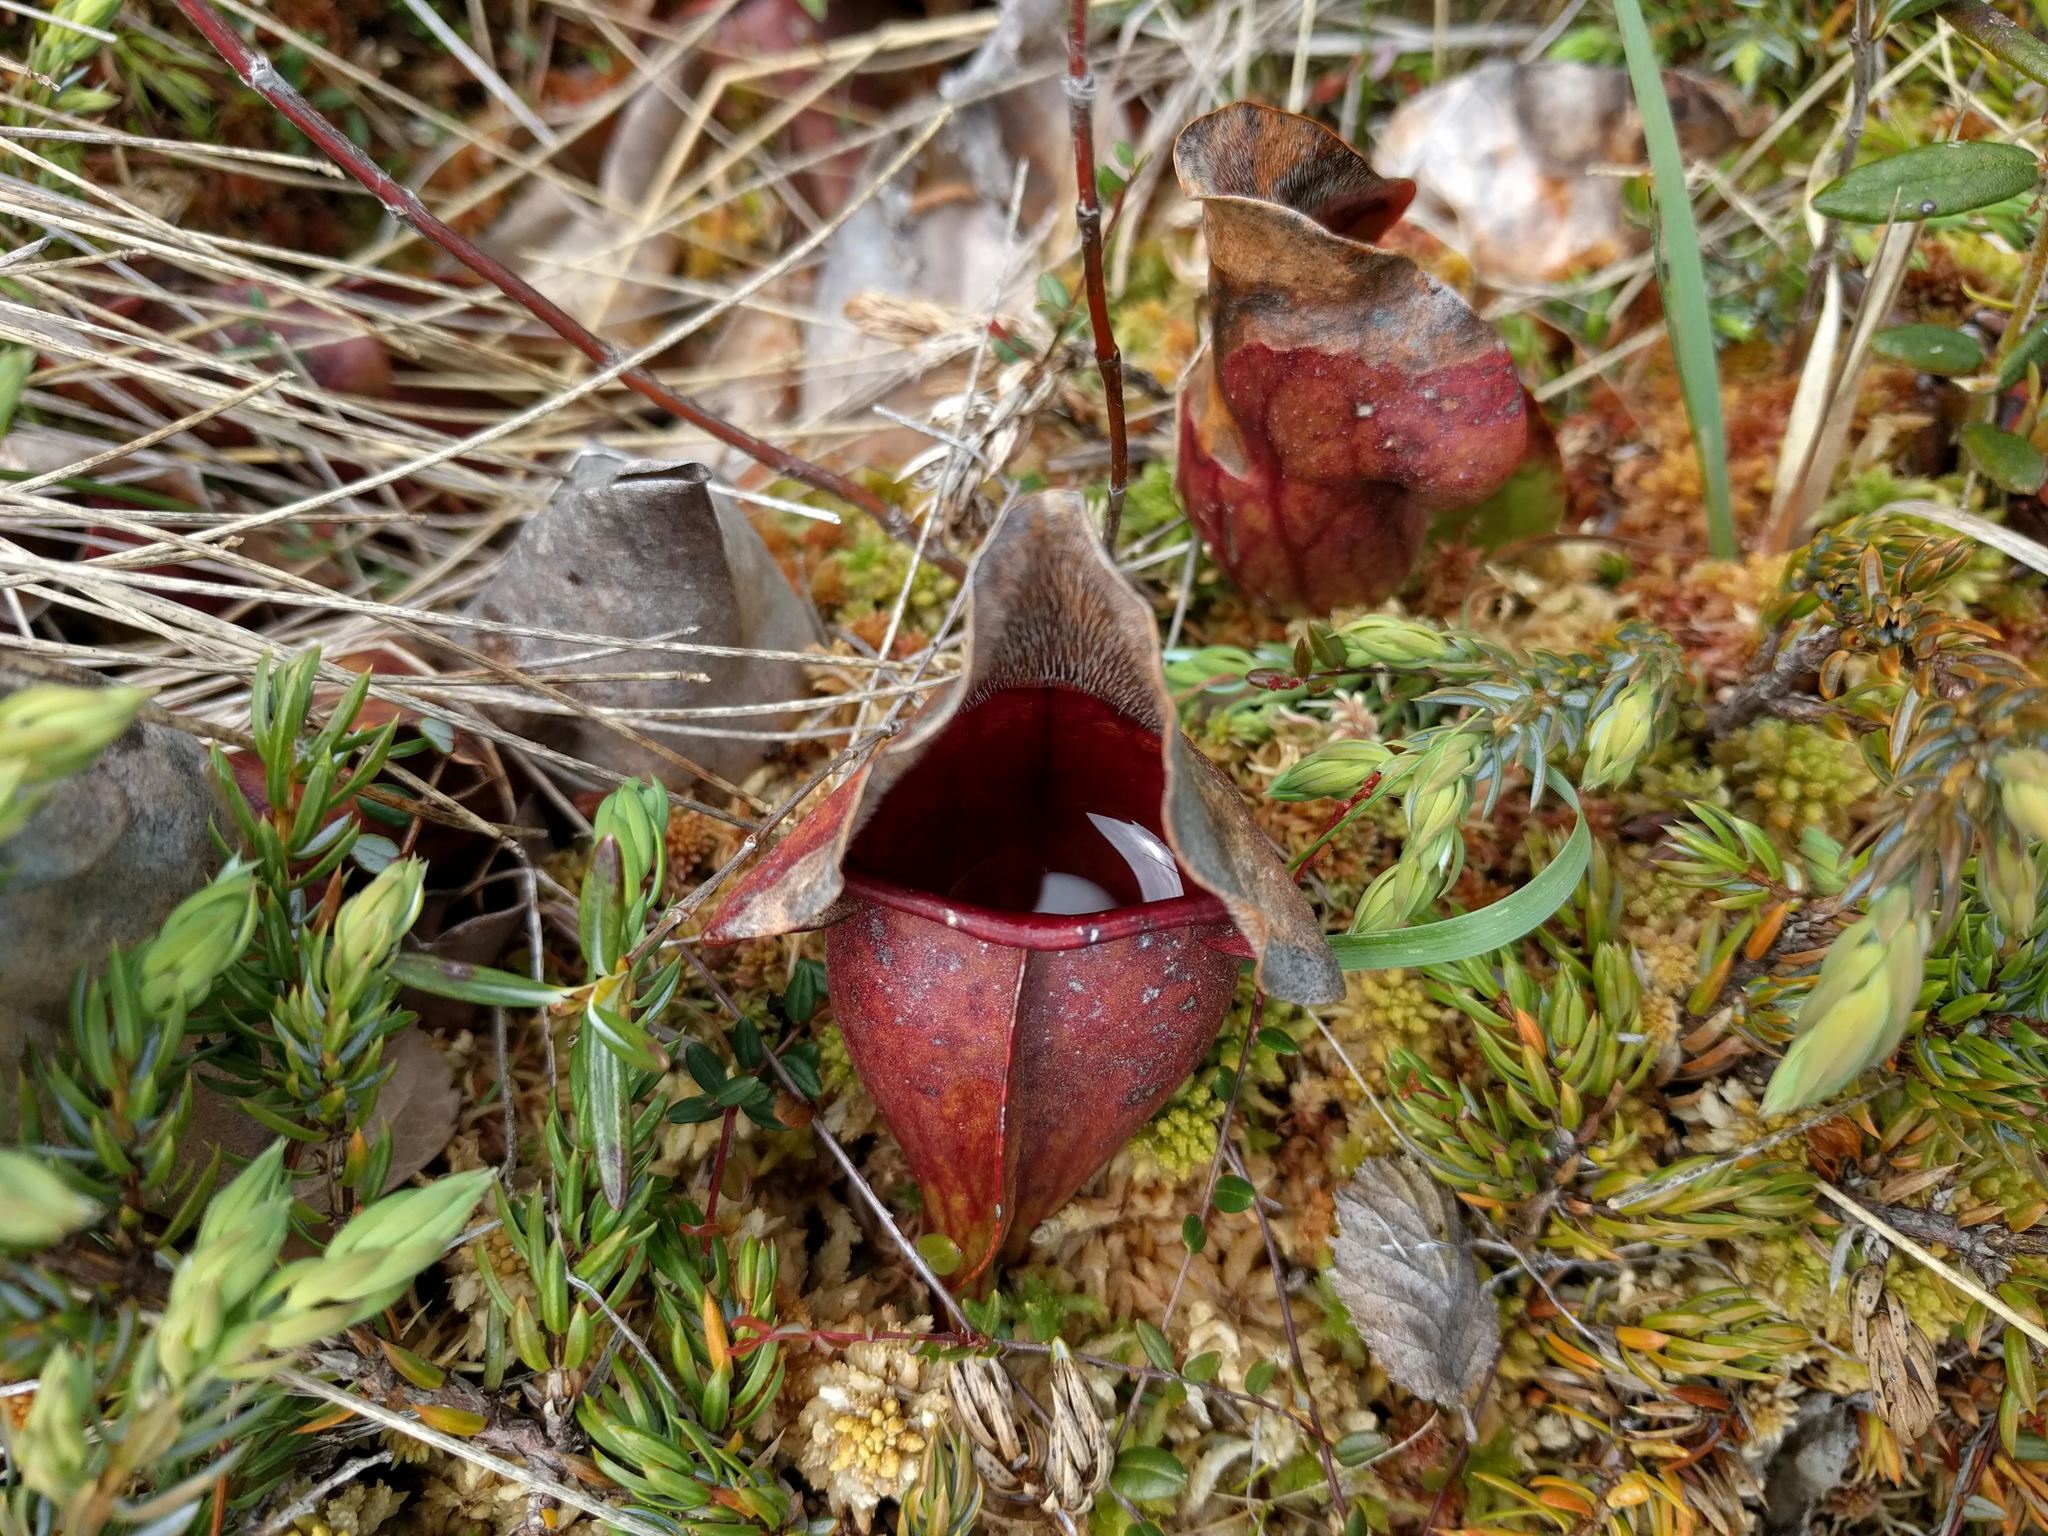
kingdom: Plantae
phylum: Tracheophyta
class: Magnoliopsida
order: Ericales
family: Sarraceniaceae
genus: Sarracenia
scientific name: Sarracenia purpurea
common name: Pitcherplant
